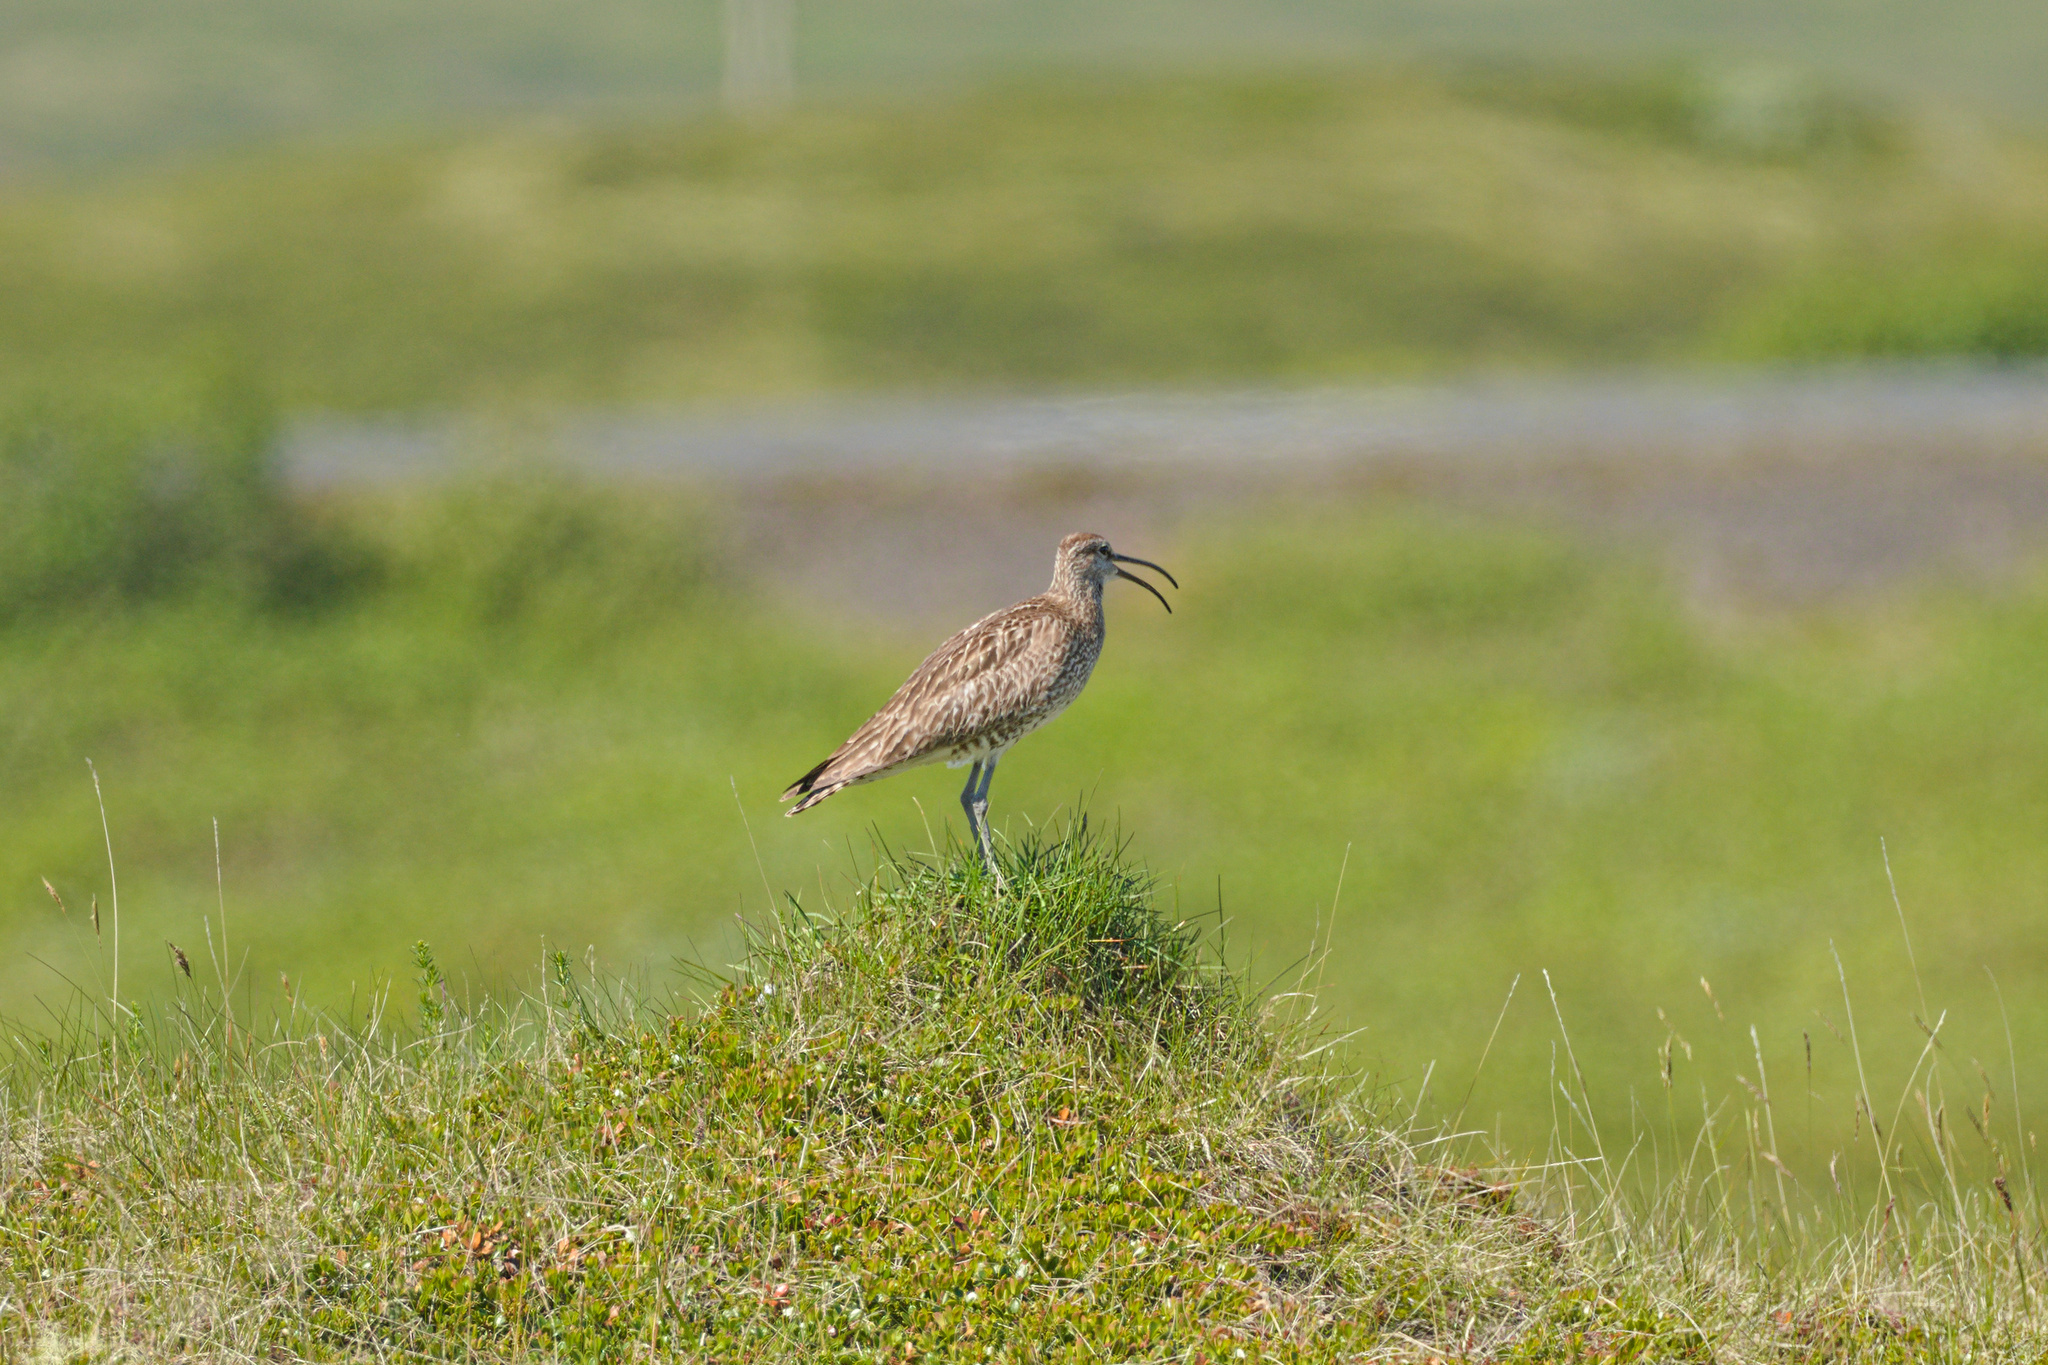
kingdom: Animalia
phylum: Chordata
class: Aves
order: Charadriiformes
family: Scolopacidae
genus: Numenius
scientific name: Numenius phaeopus
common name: Whimbrel
